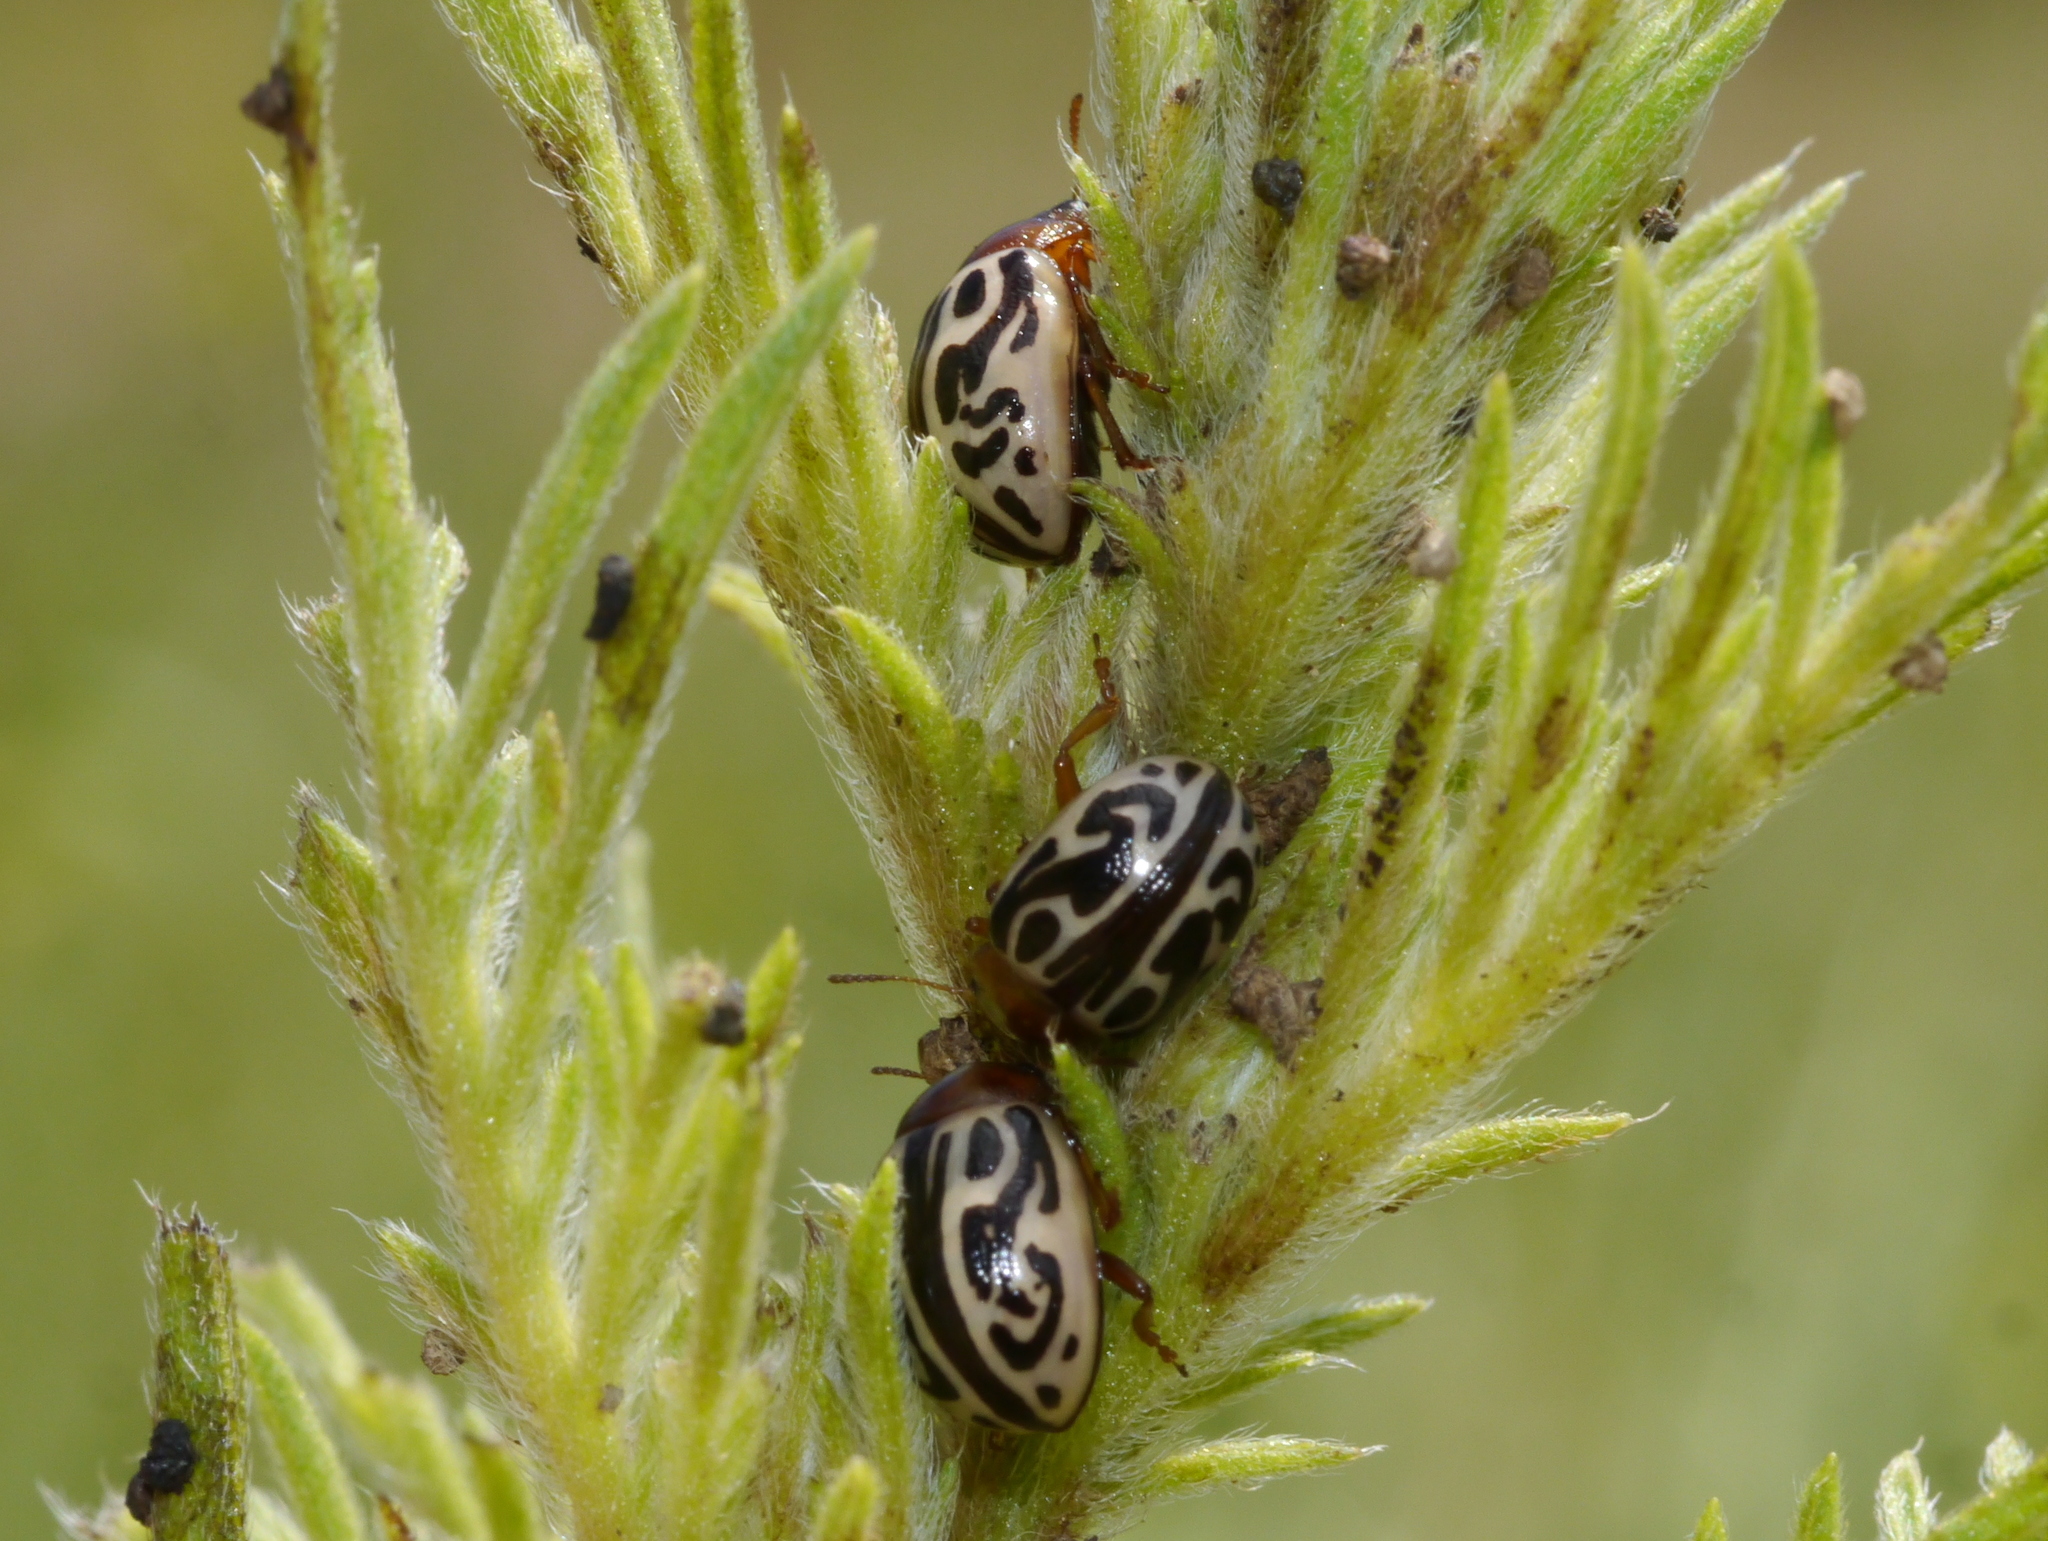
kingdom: Animalia
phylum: Arthropoda
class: Insecta
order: Coleoptera
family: Chrysomelidae
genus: Calligrapha
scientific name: Calligrapha
